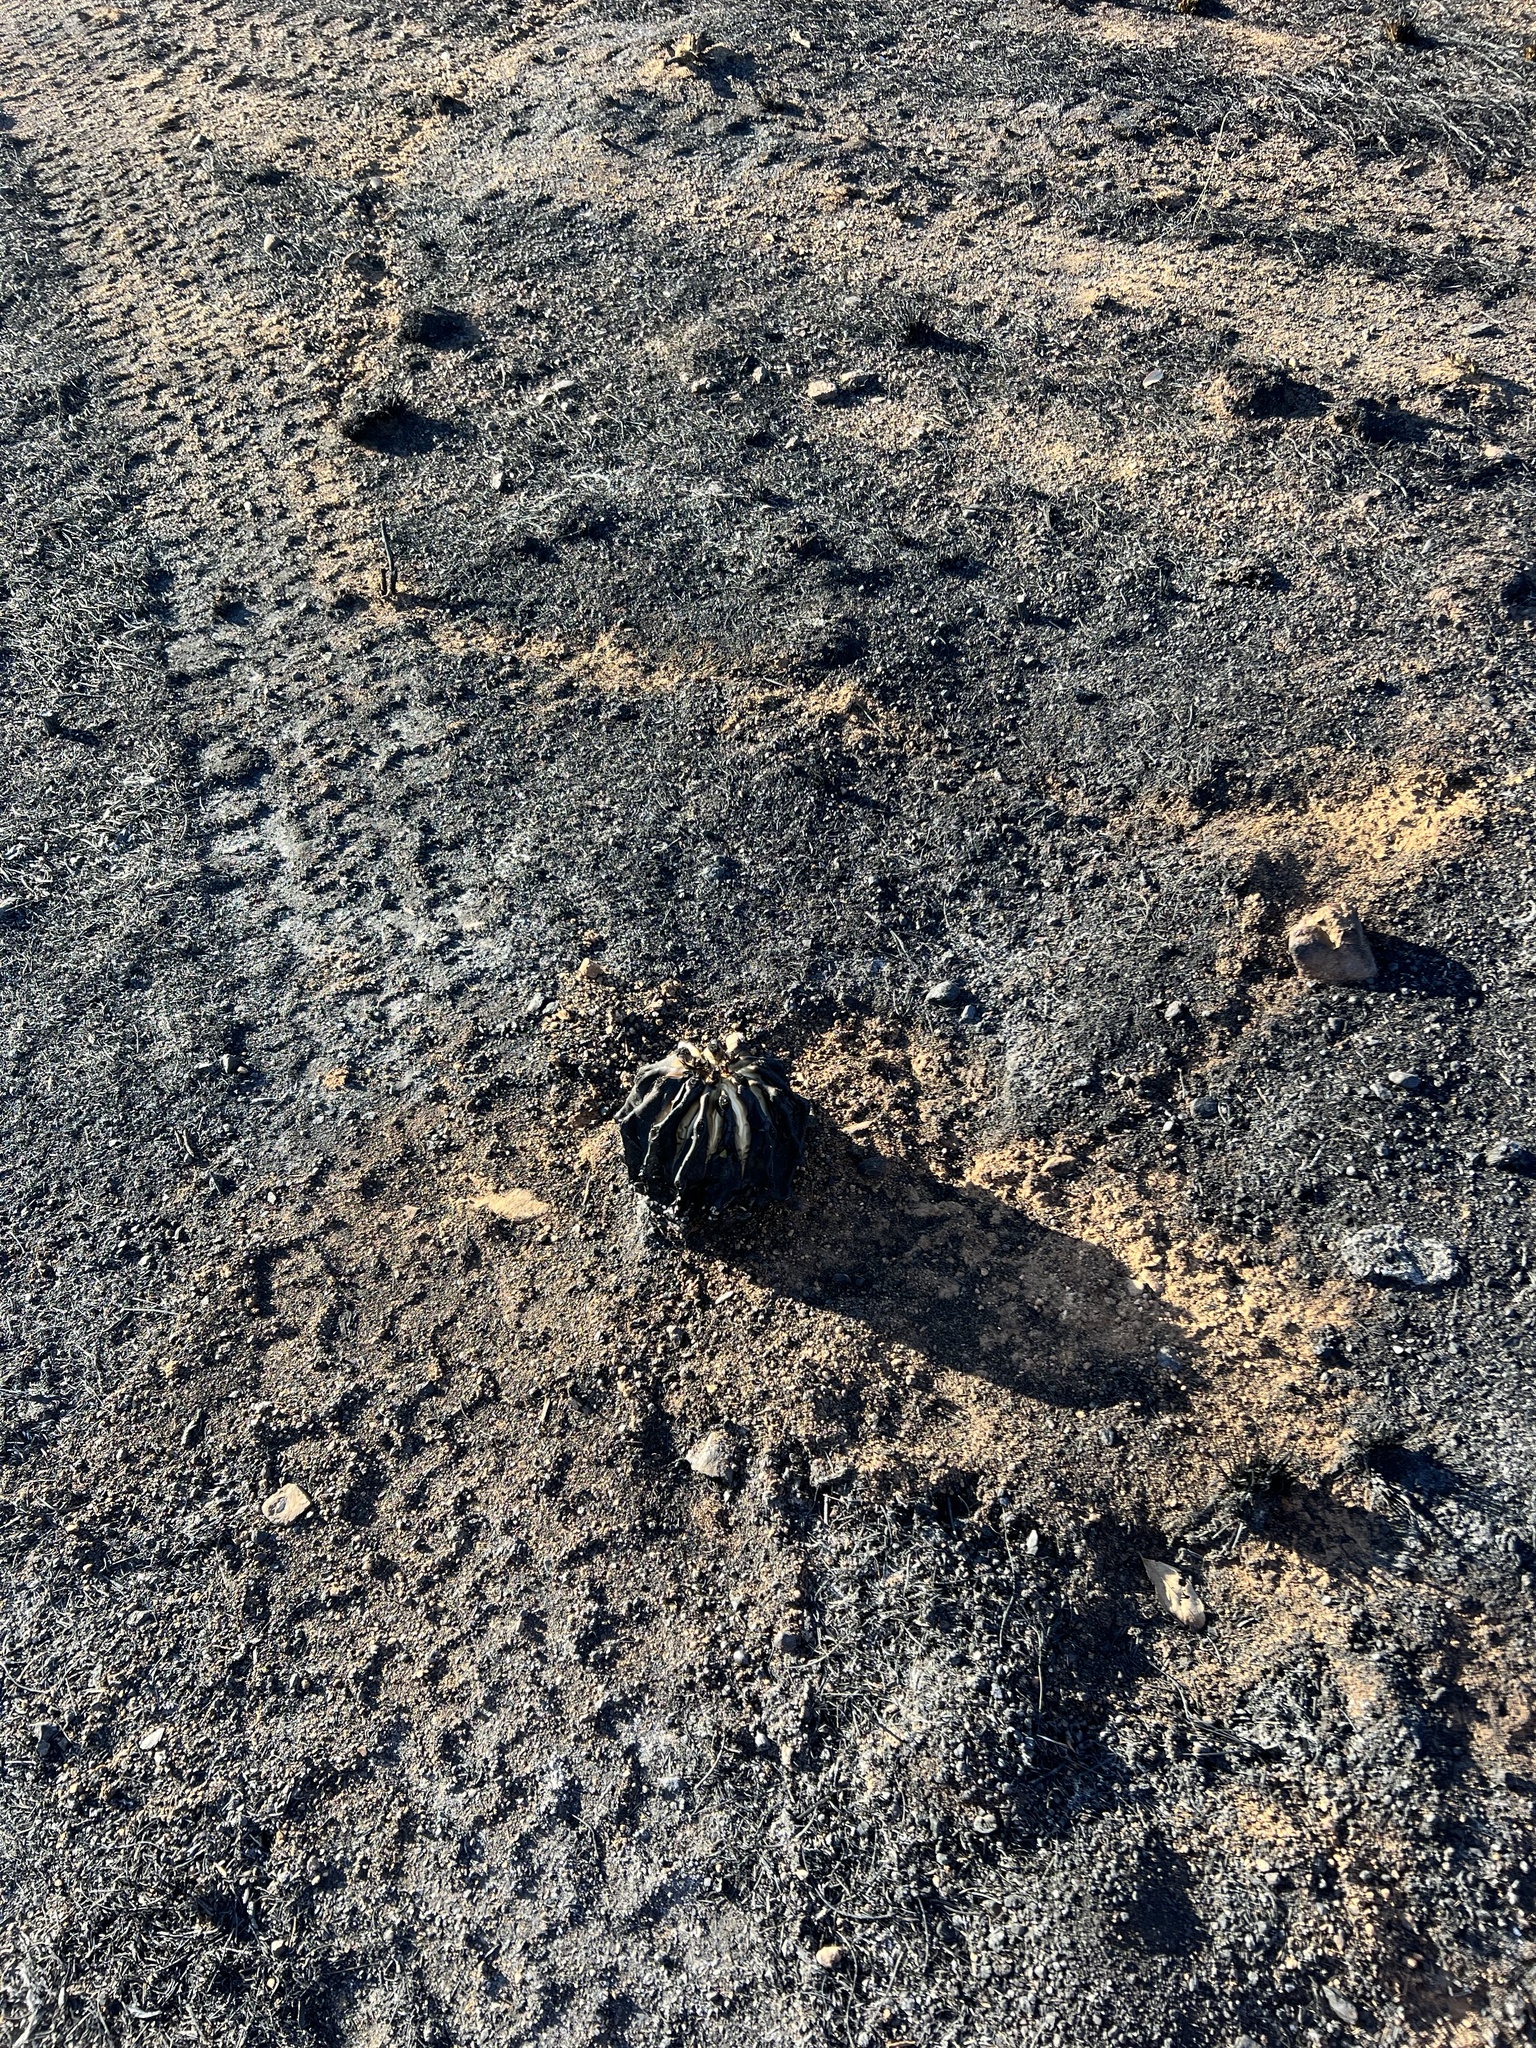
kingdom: Plantae
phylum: Tracheophyta
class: Magnoliopsida
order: Caryophyllales
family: Cactaceae
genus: Ferocactus
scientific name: Ferocactus wislizeni
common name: Candy barrel cactus
